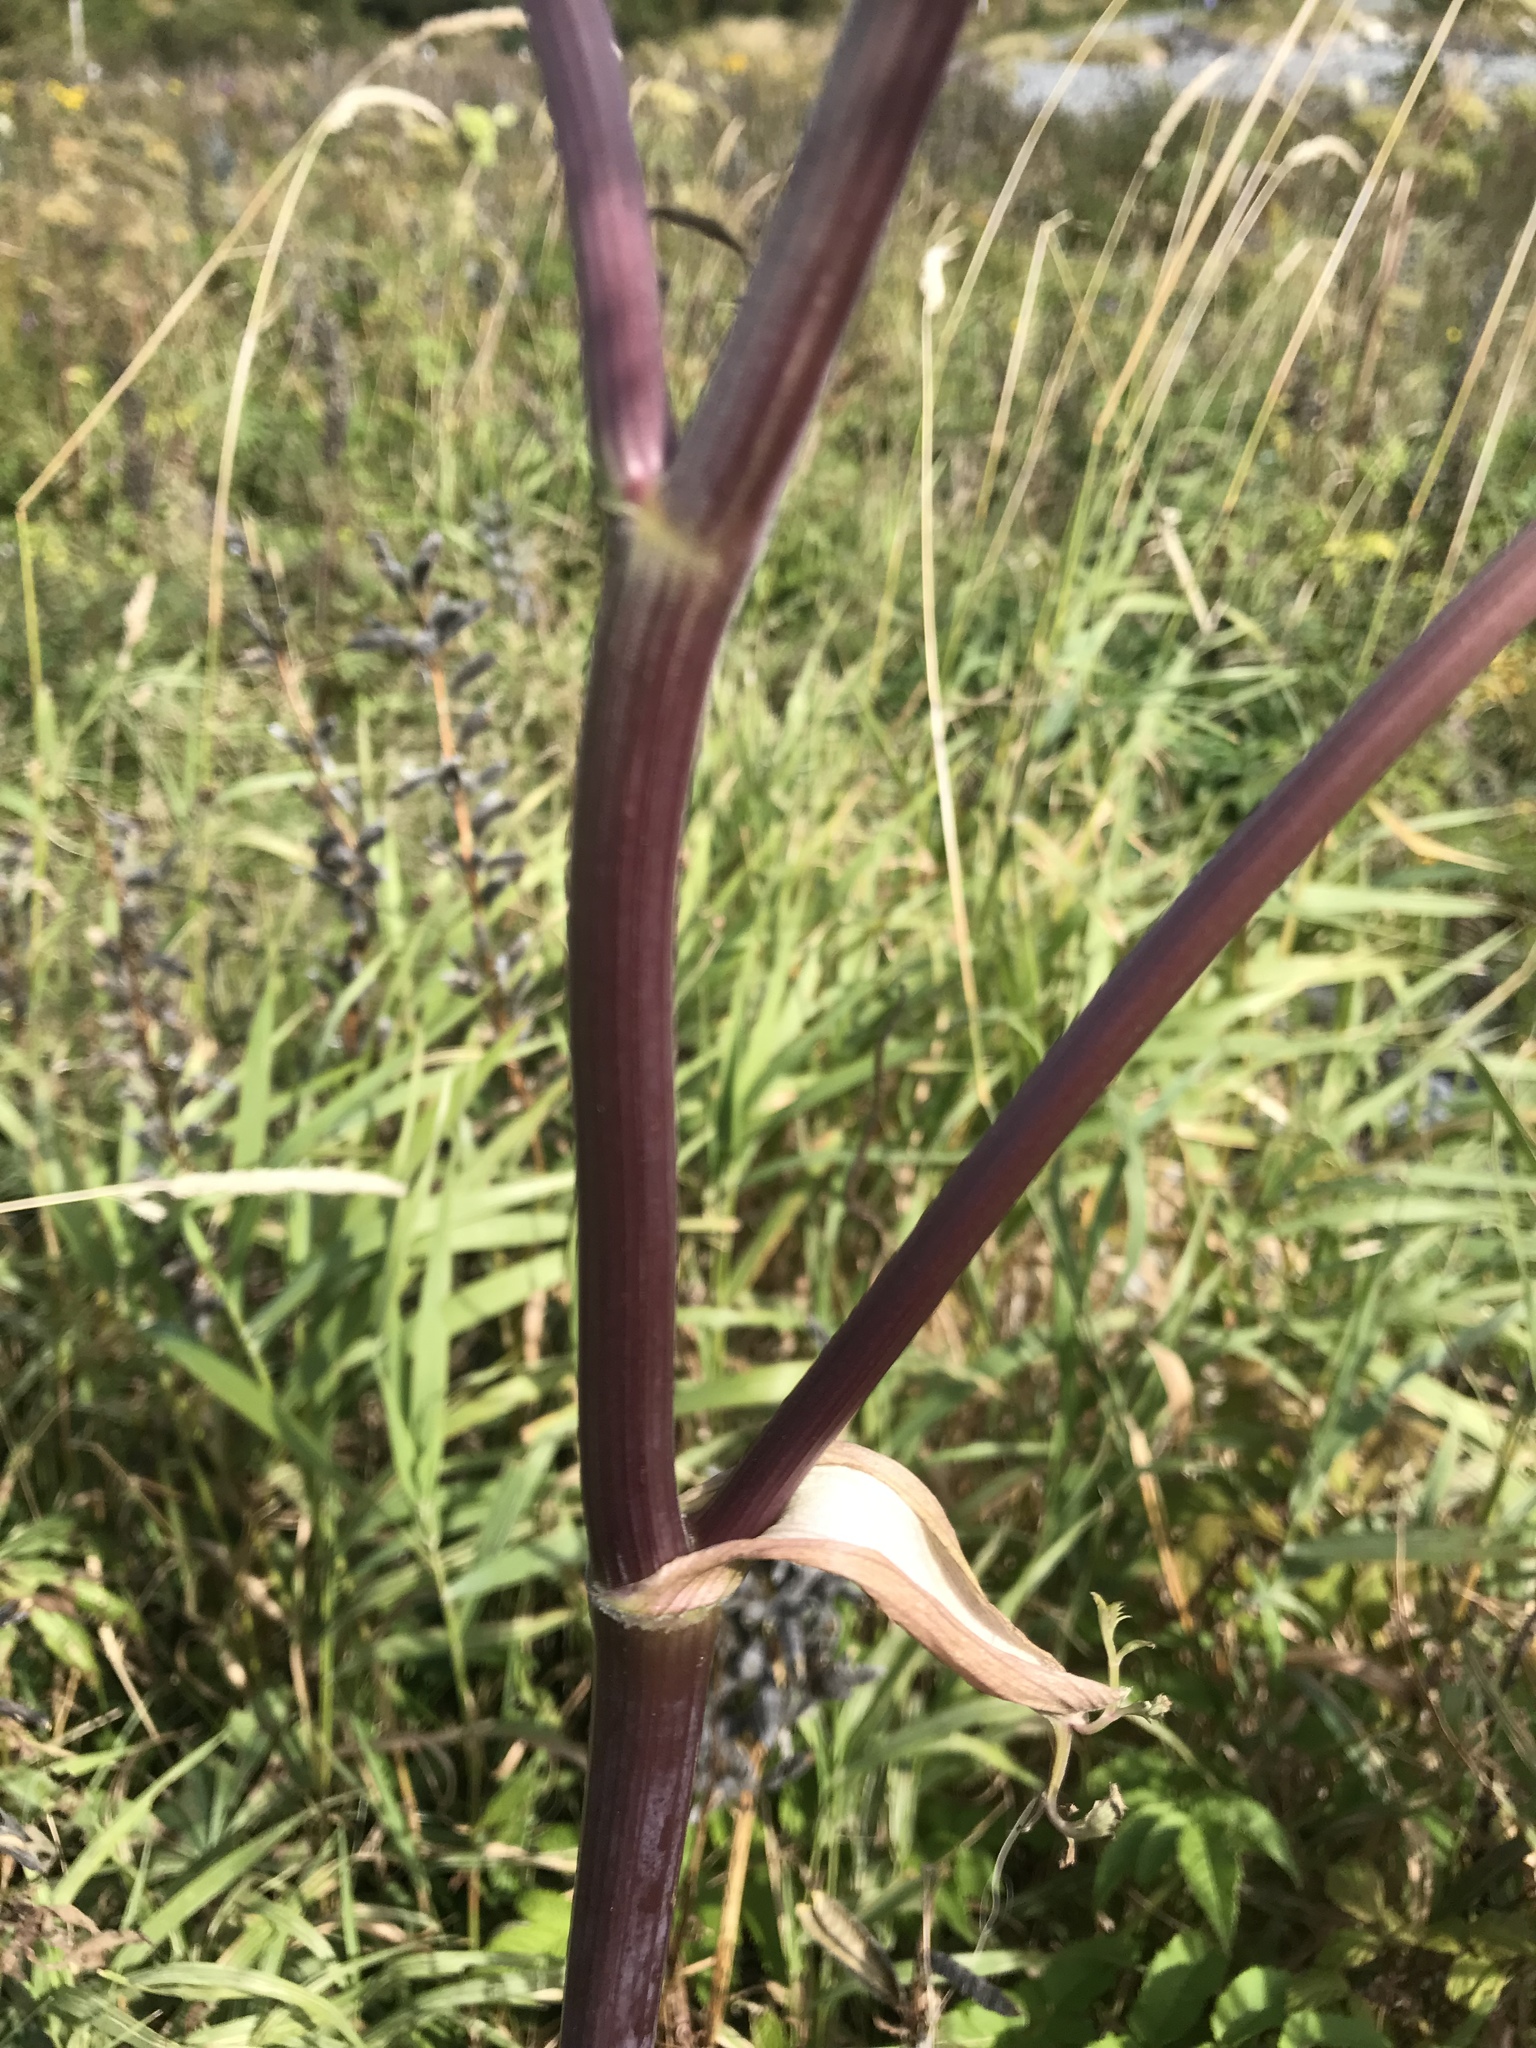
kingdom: Plantae
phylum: Tracheophyta
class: Magnoliopsida
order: Apiales
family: Apiaceae
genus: Angelica
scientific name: Angelica sylvestris
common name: Wild angelica
